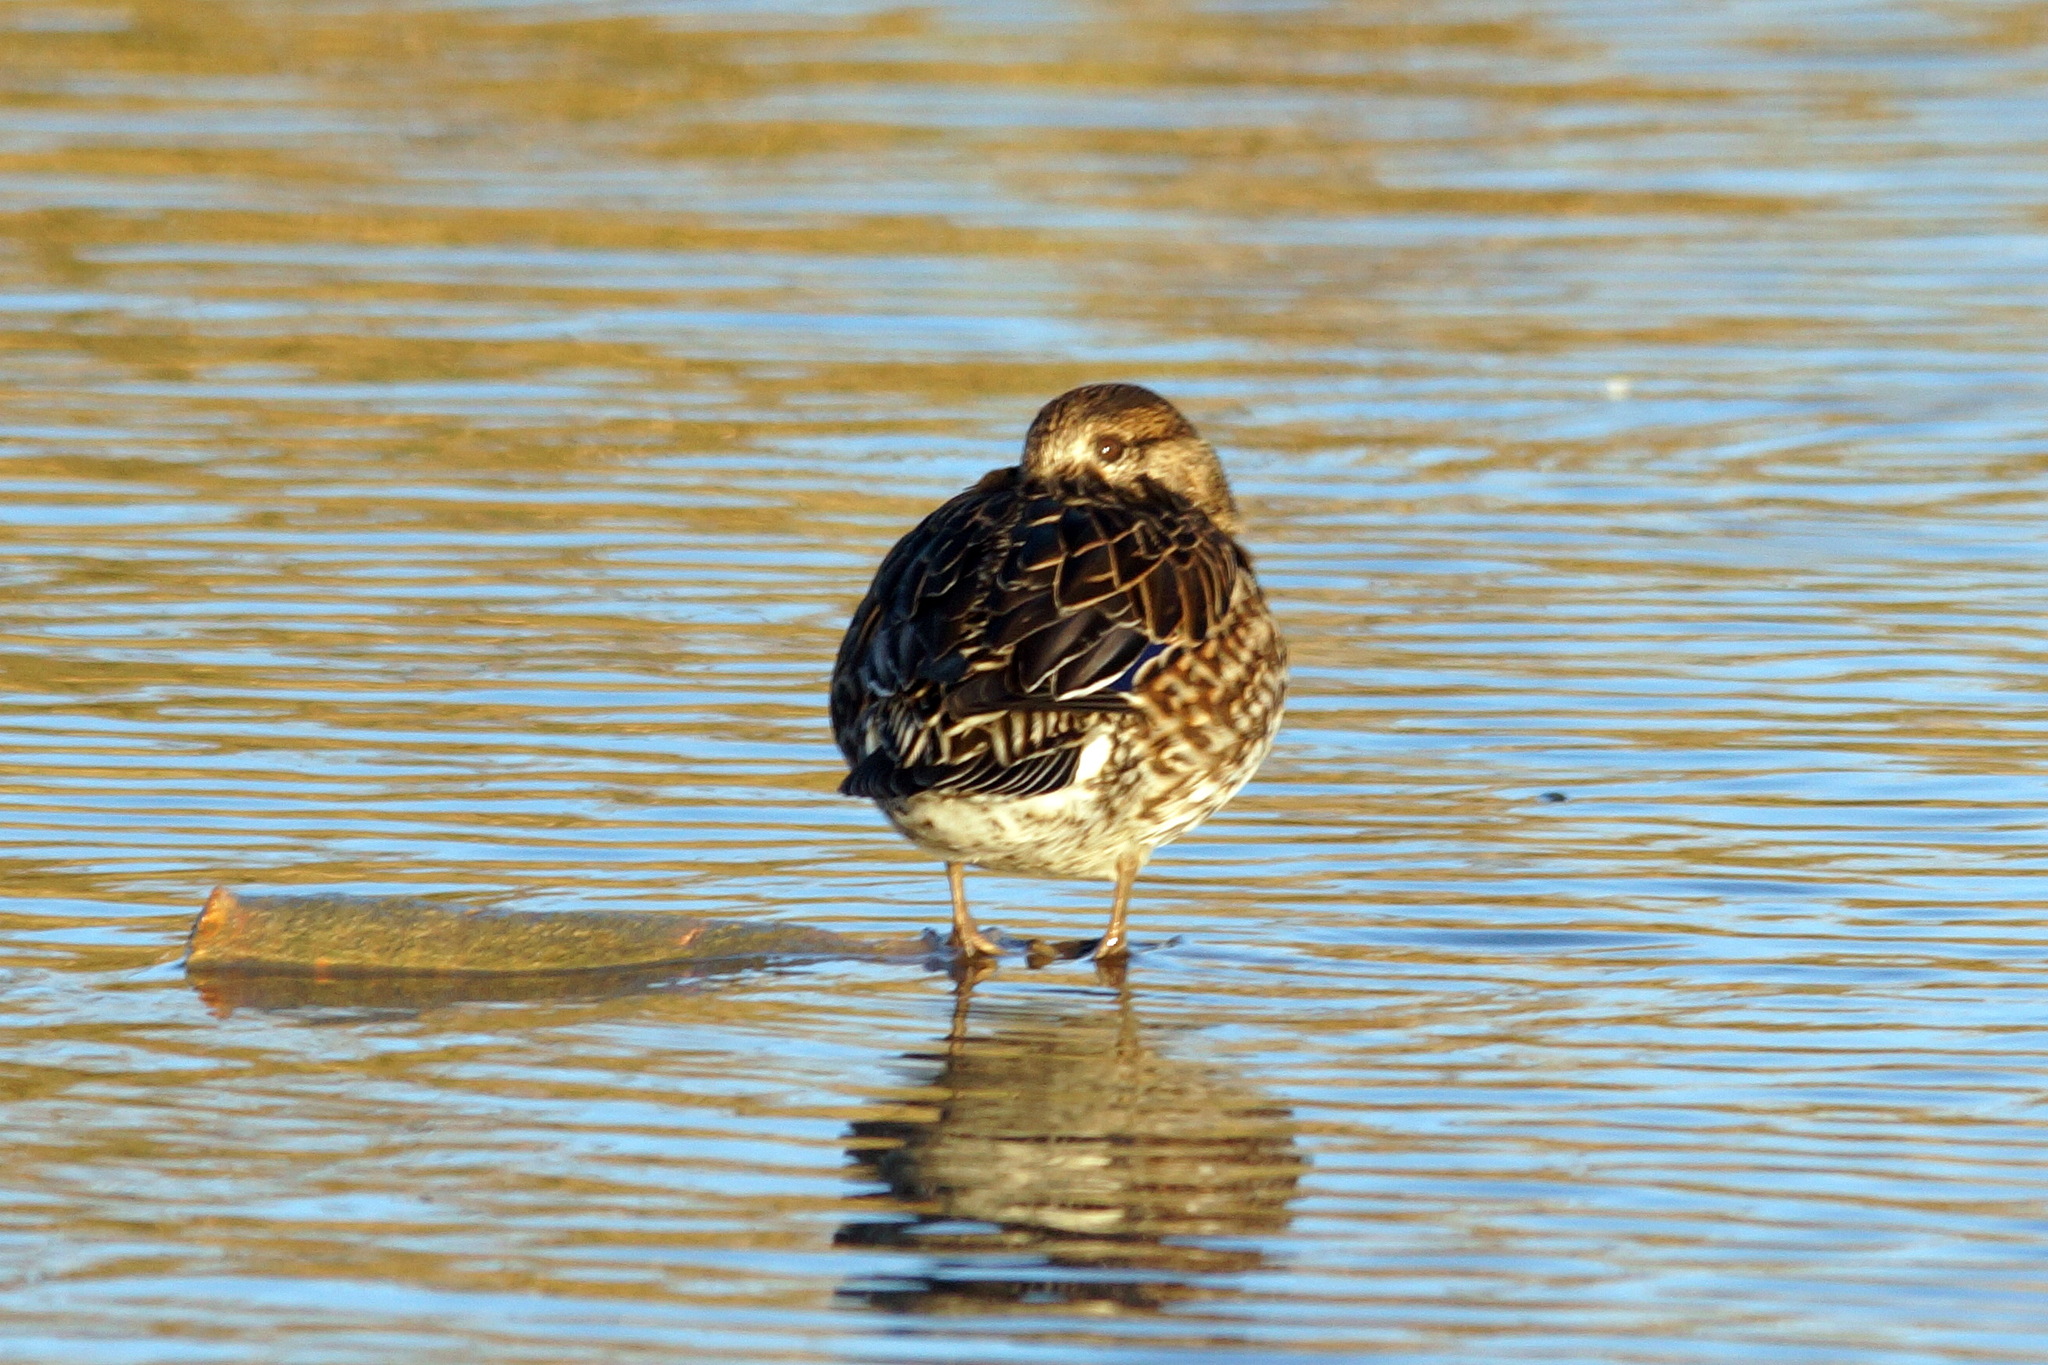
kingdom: Animalia
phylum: Chordata
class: Aves
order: Anseriformes
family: Anatidae
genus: Anas
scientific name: Anas crecca
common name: Eurasian teal
